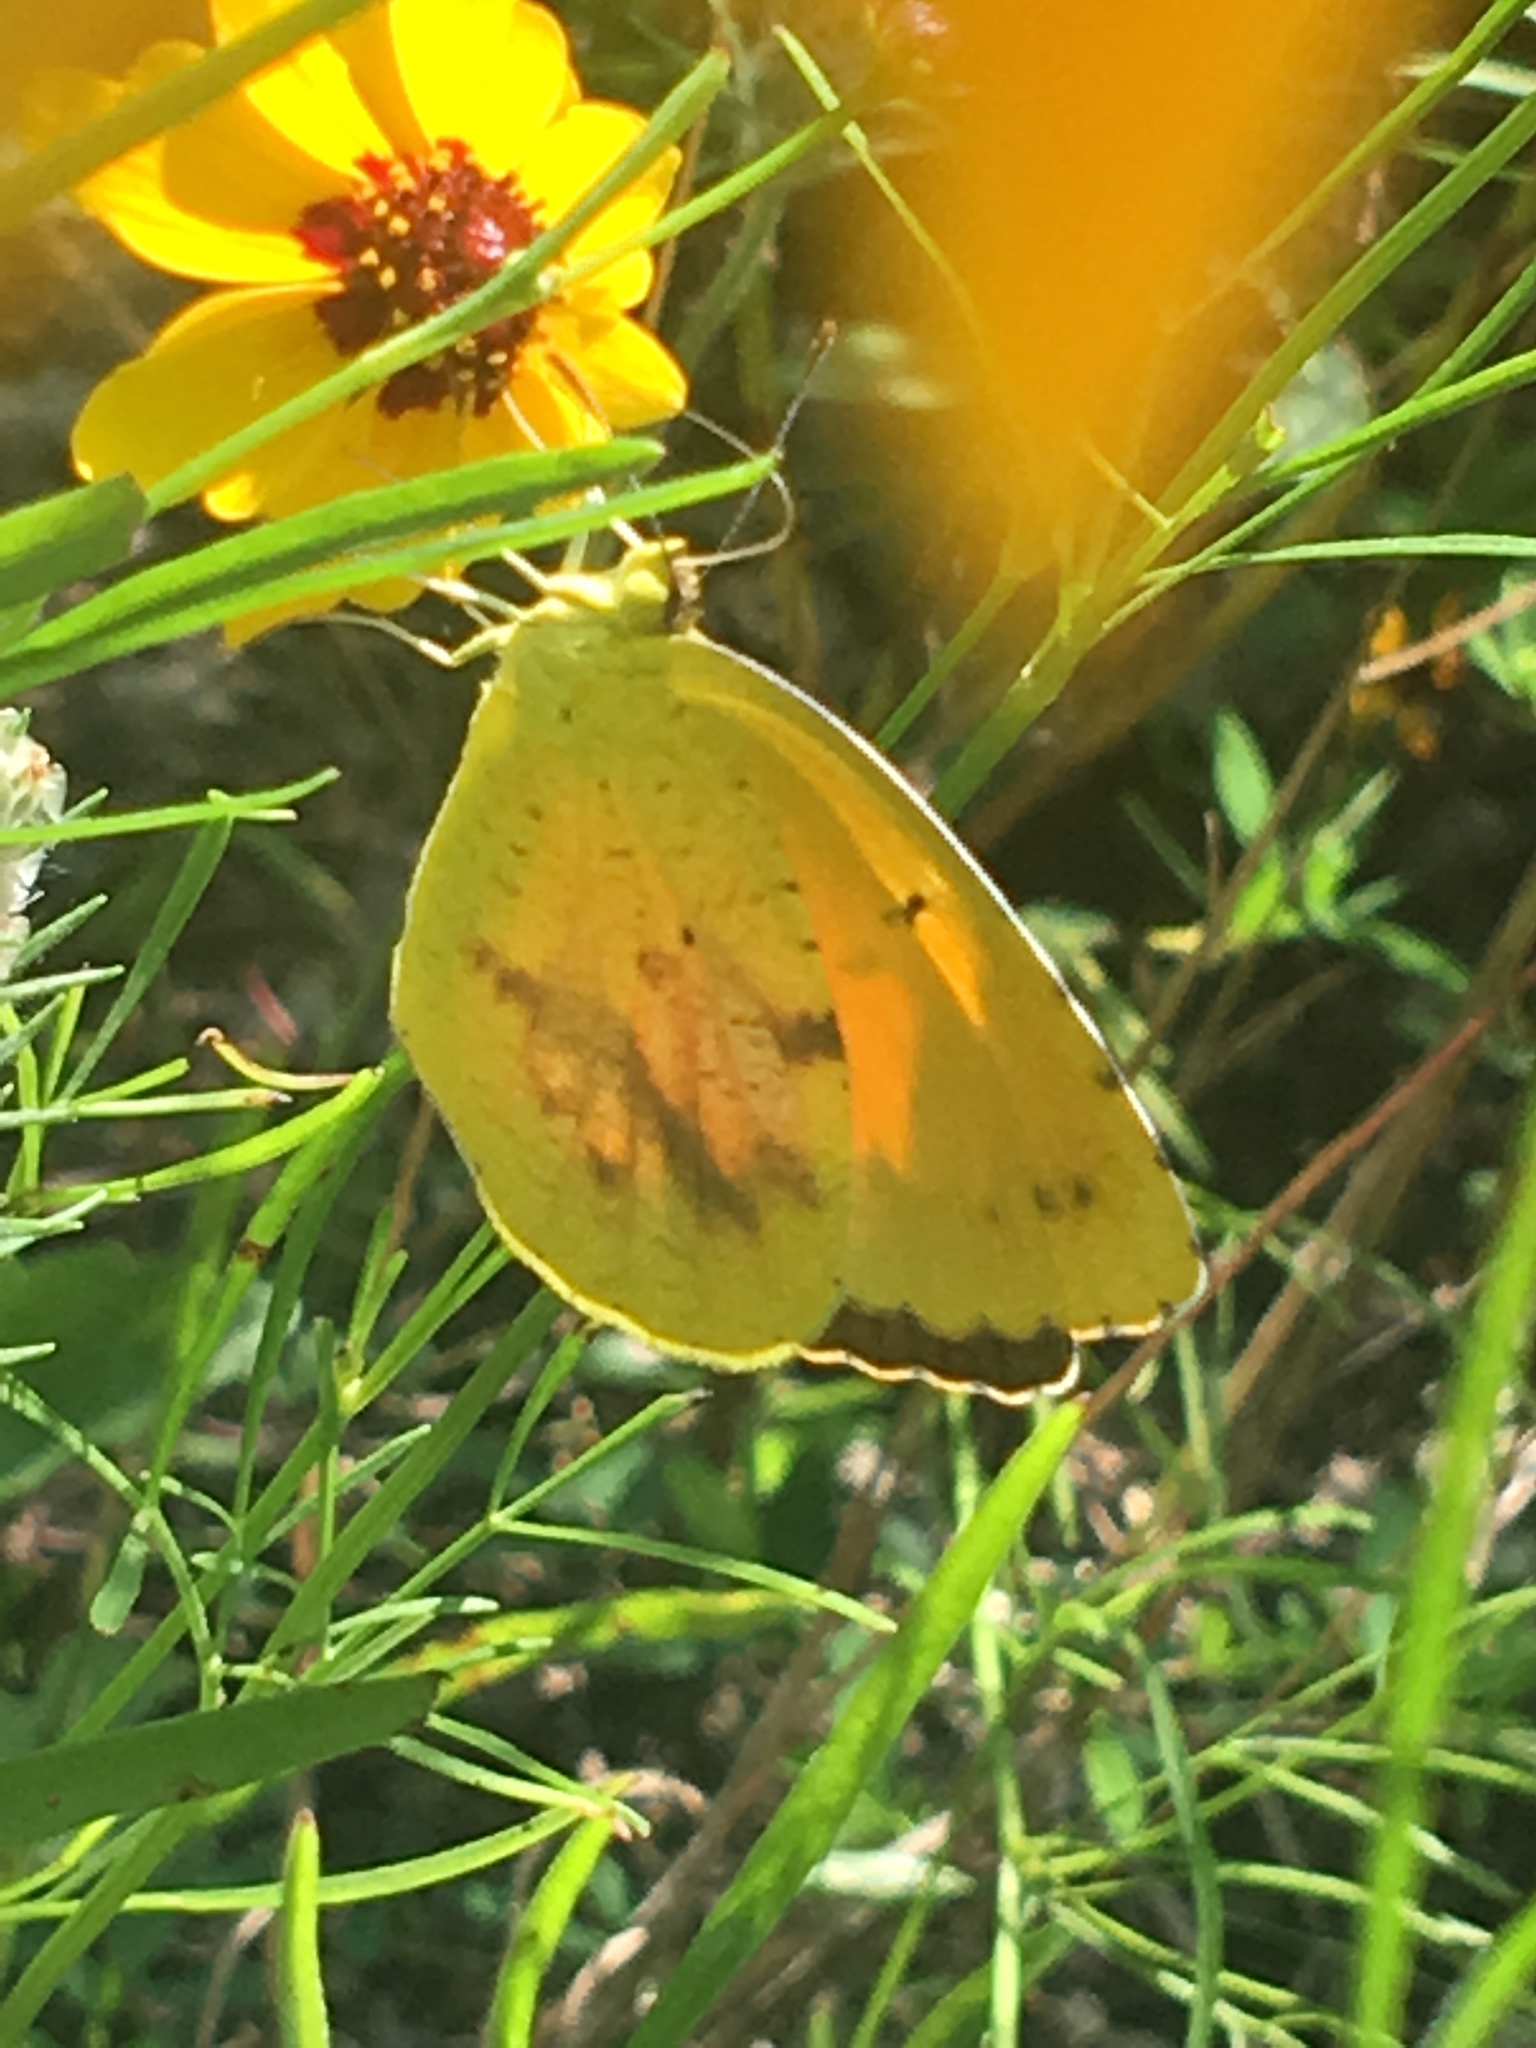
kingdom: Animalia
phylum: Arthropoda
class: Insecta
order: Lepidoptera
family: Pieridae
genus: Abaeis
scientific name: Abaeis nicippe
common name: Sleepy orange
